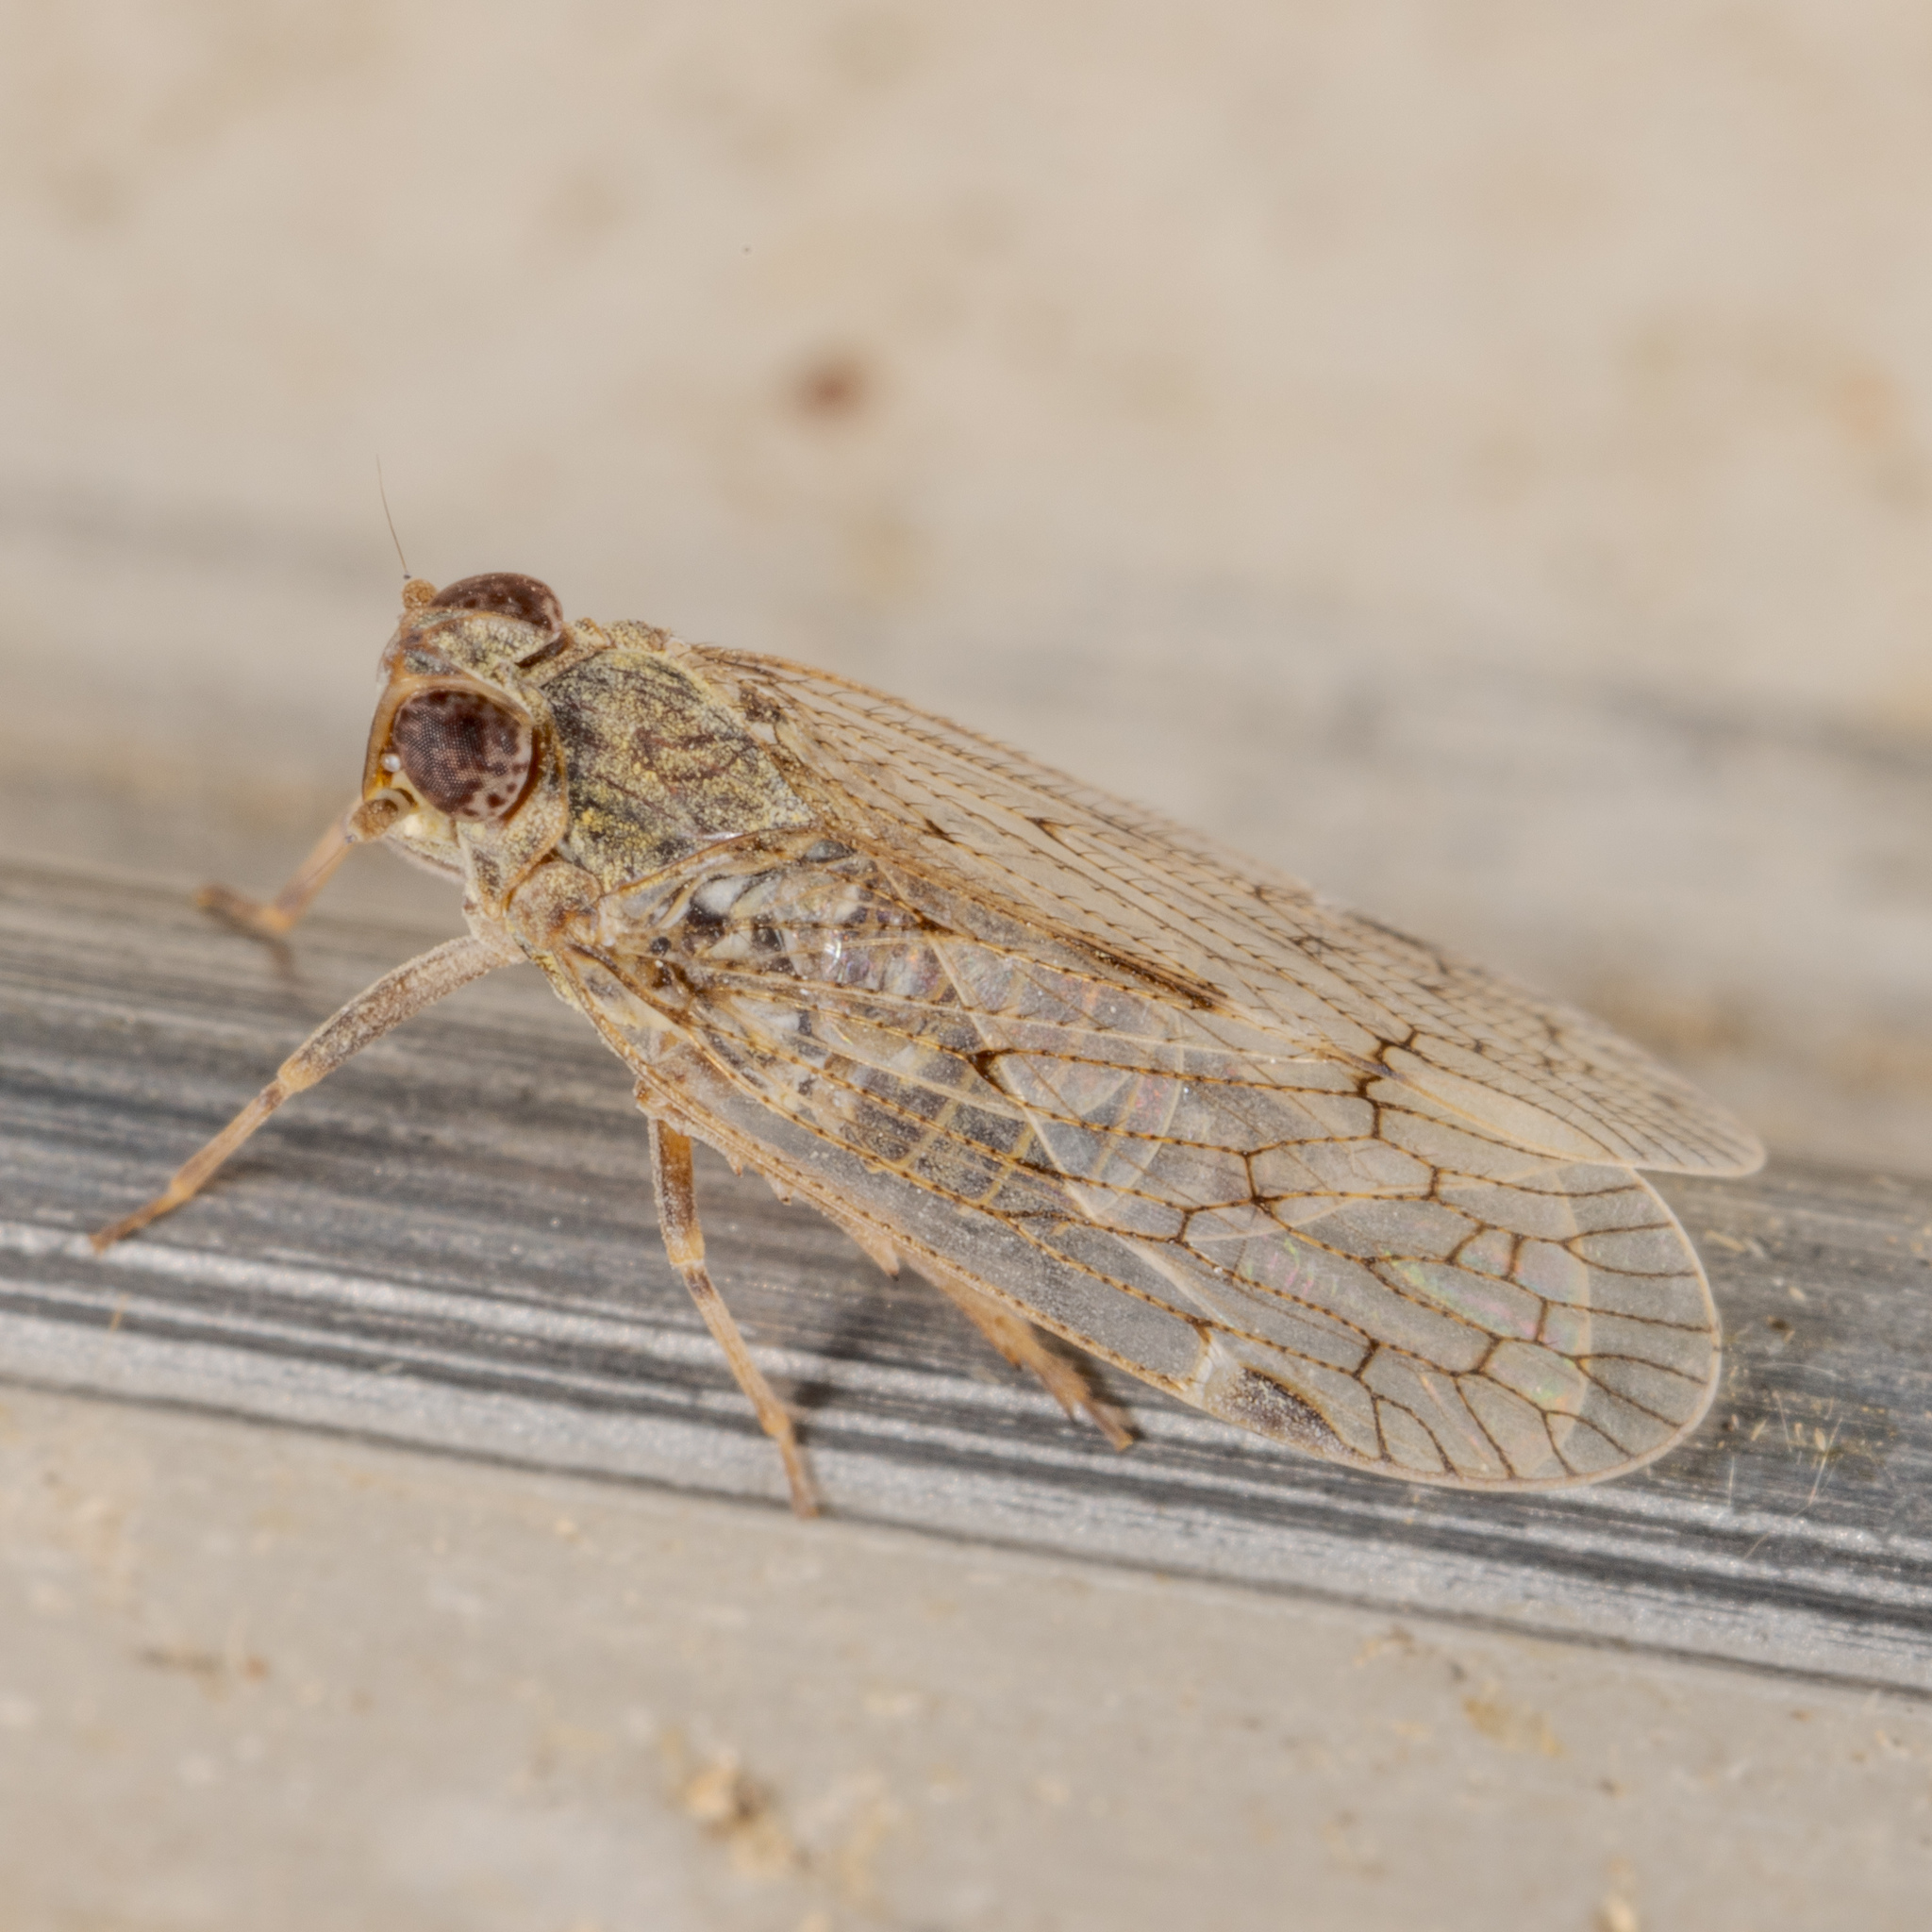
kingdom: Animalia
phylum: Arthropoda
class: Insecta
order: Hemiptera
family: Cixiidae
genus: Melanoliarus
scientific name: Melanoliarus aridus
